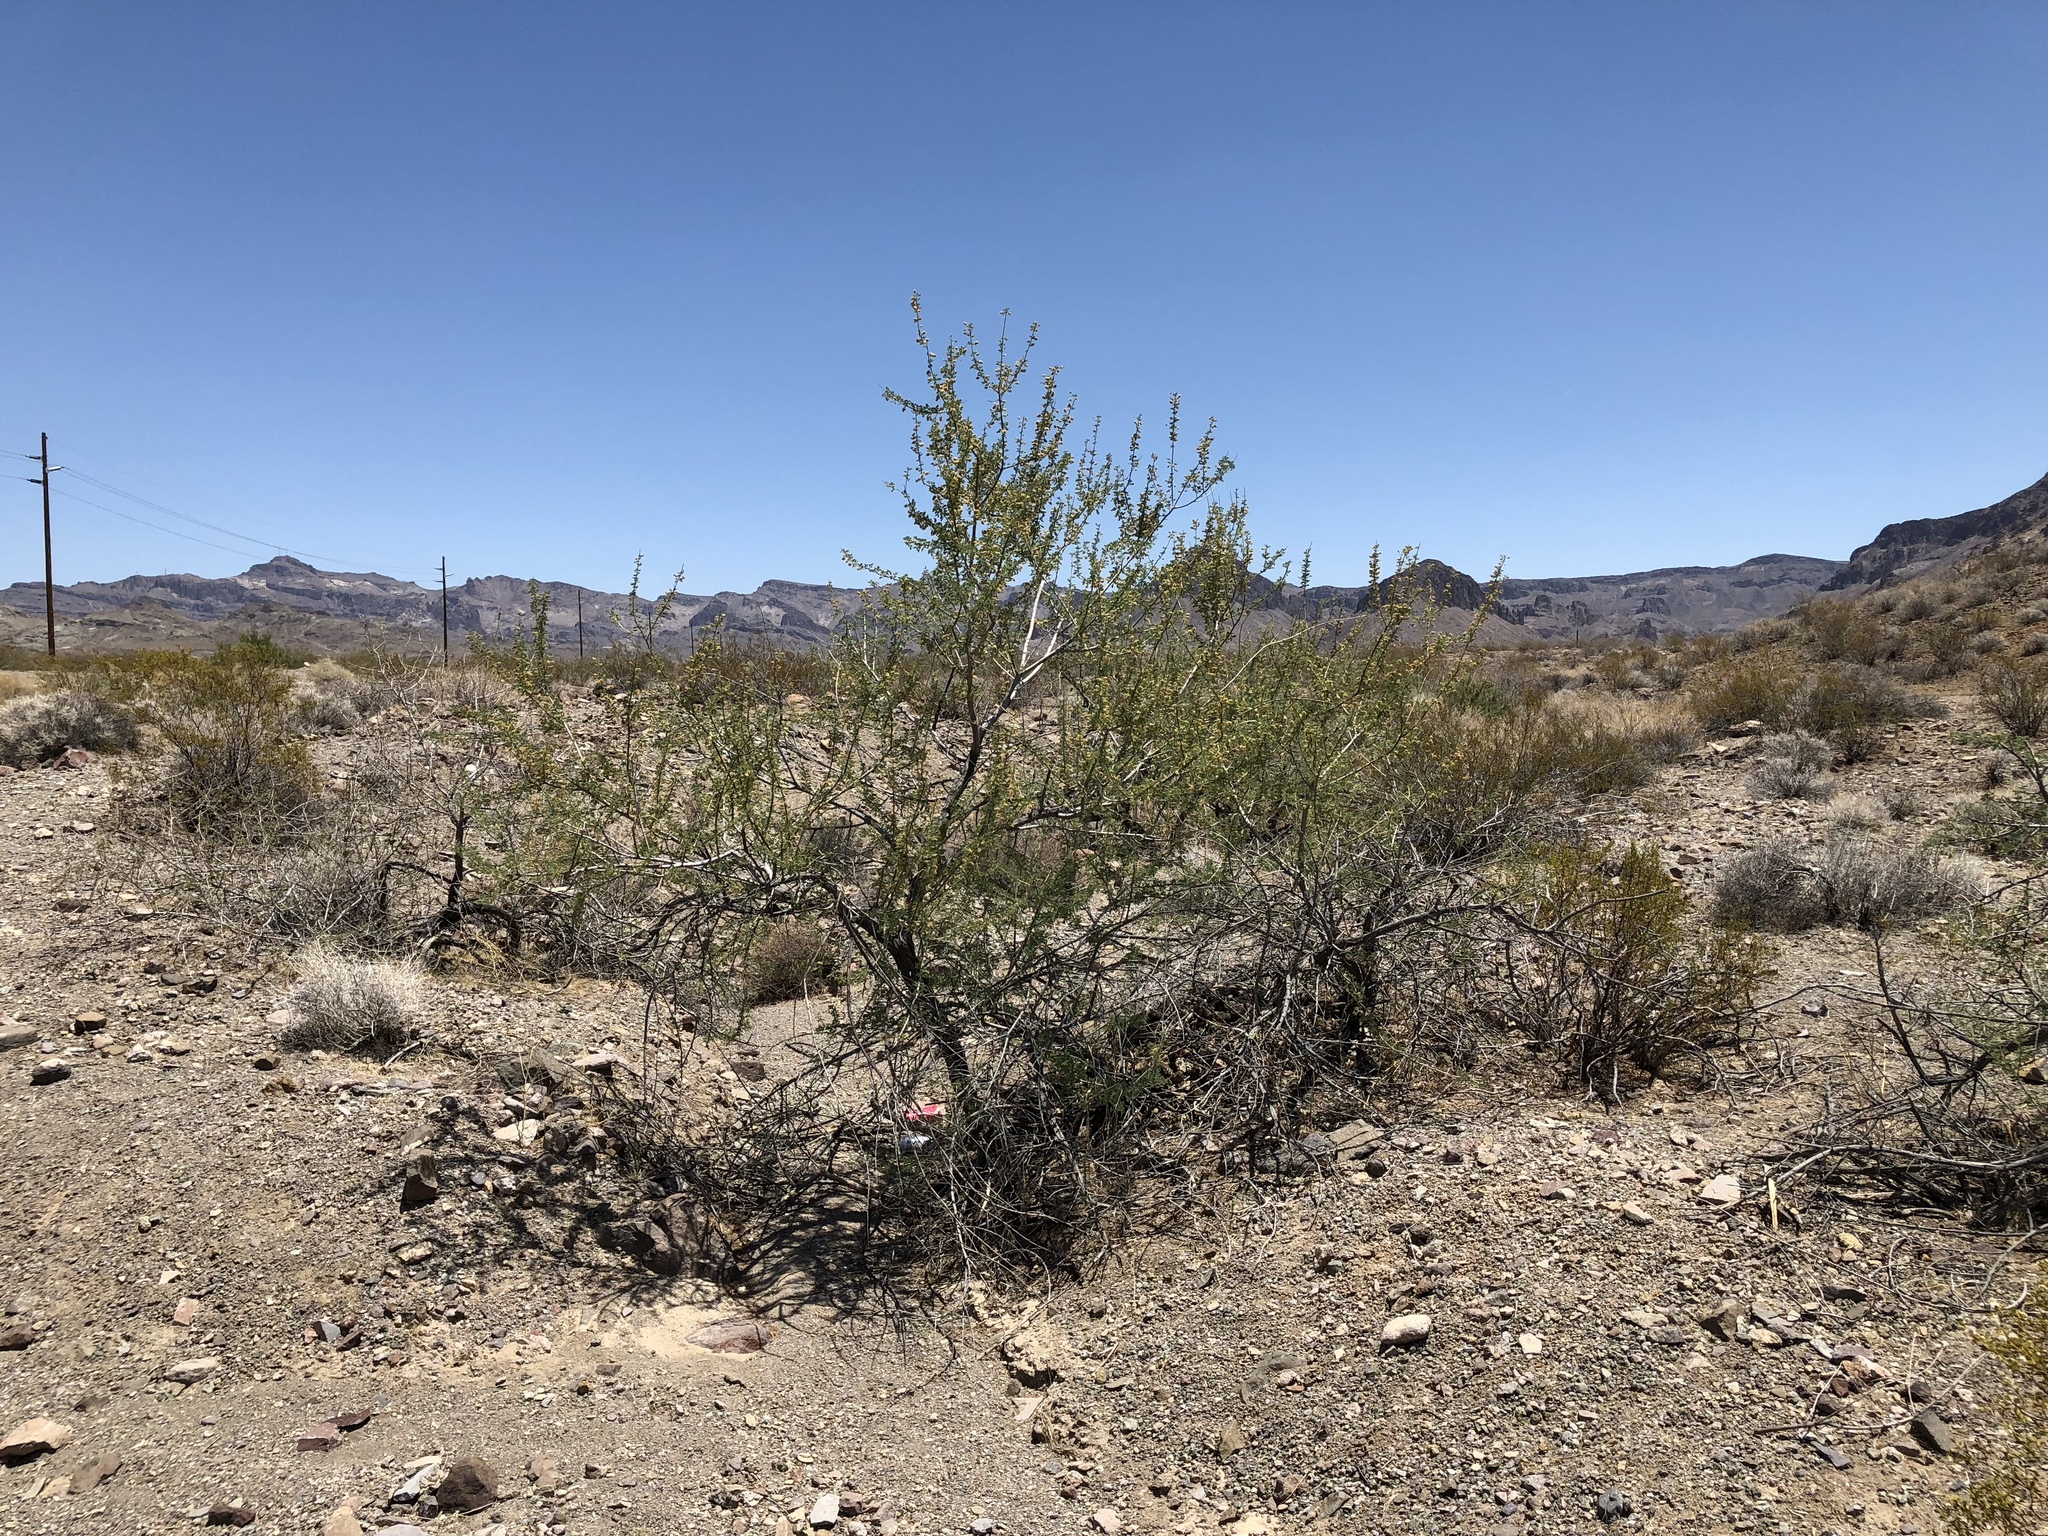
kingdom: Plantae
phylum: Tracheophyta
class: Magnoliopsida
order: Fabales
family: Fabaceae
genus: Senegalia
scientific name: Senegalia greggii
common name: Texas-mimosa
